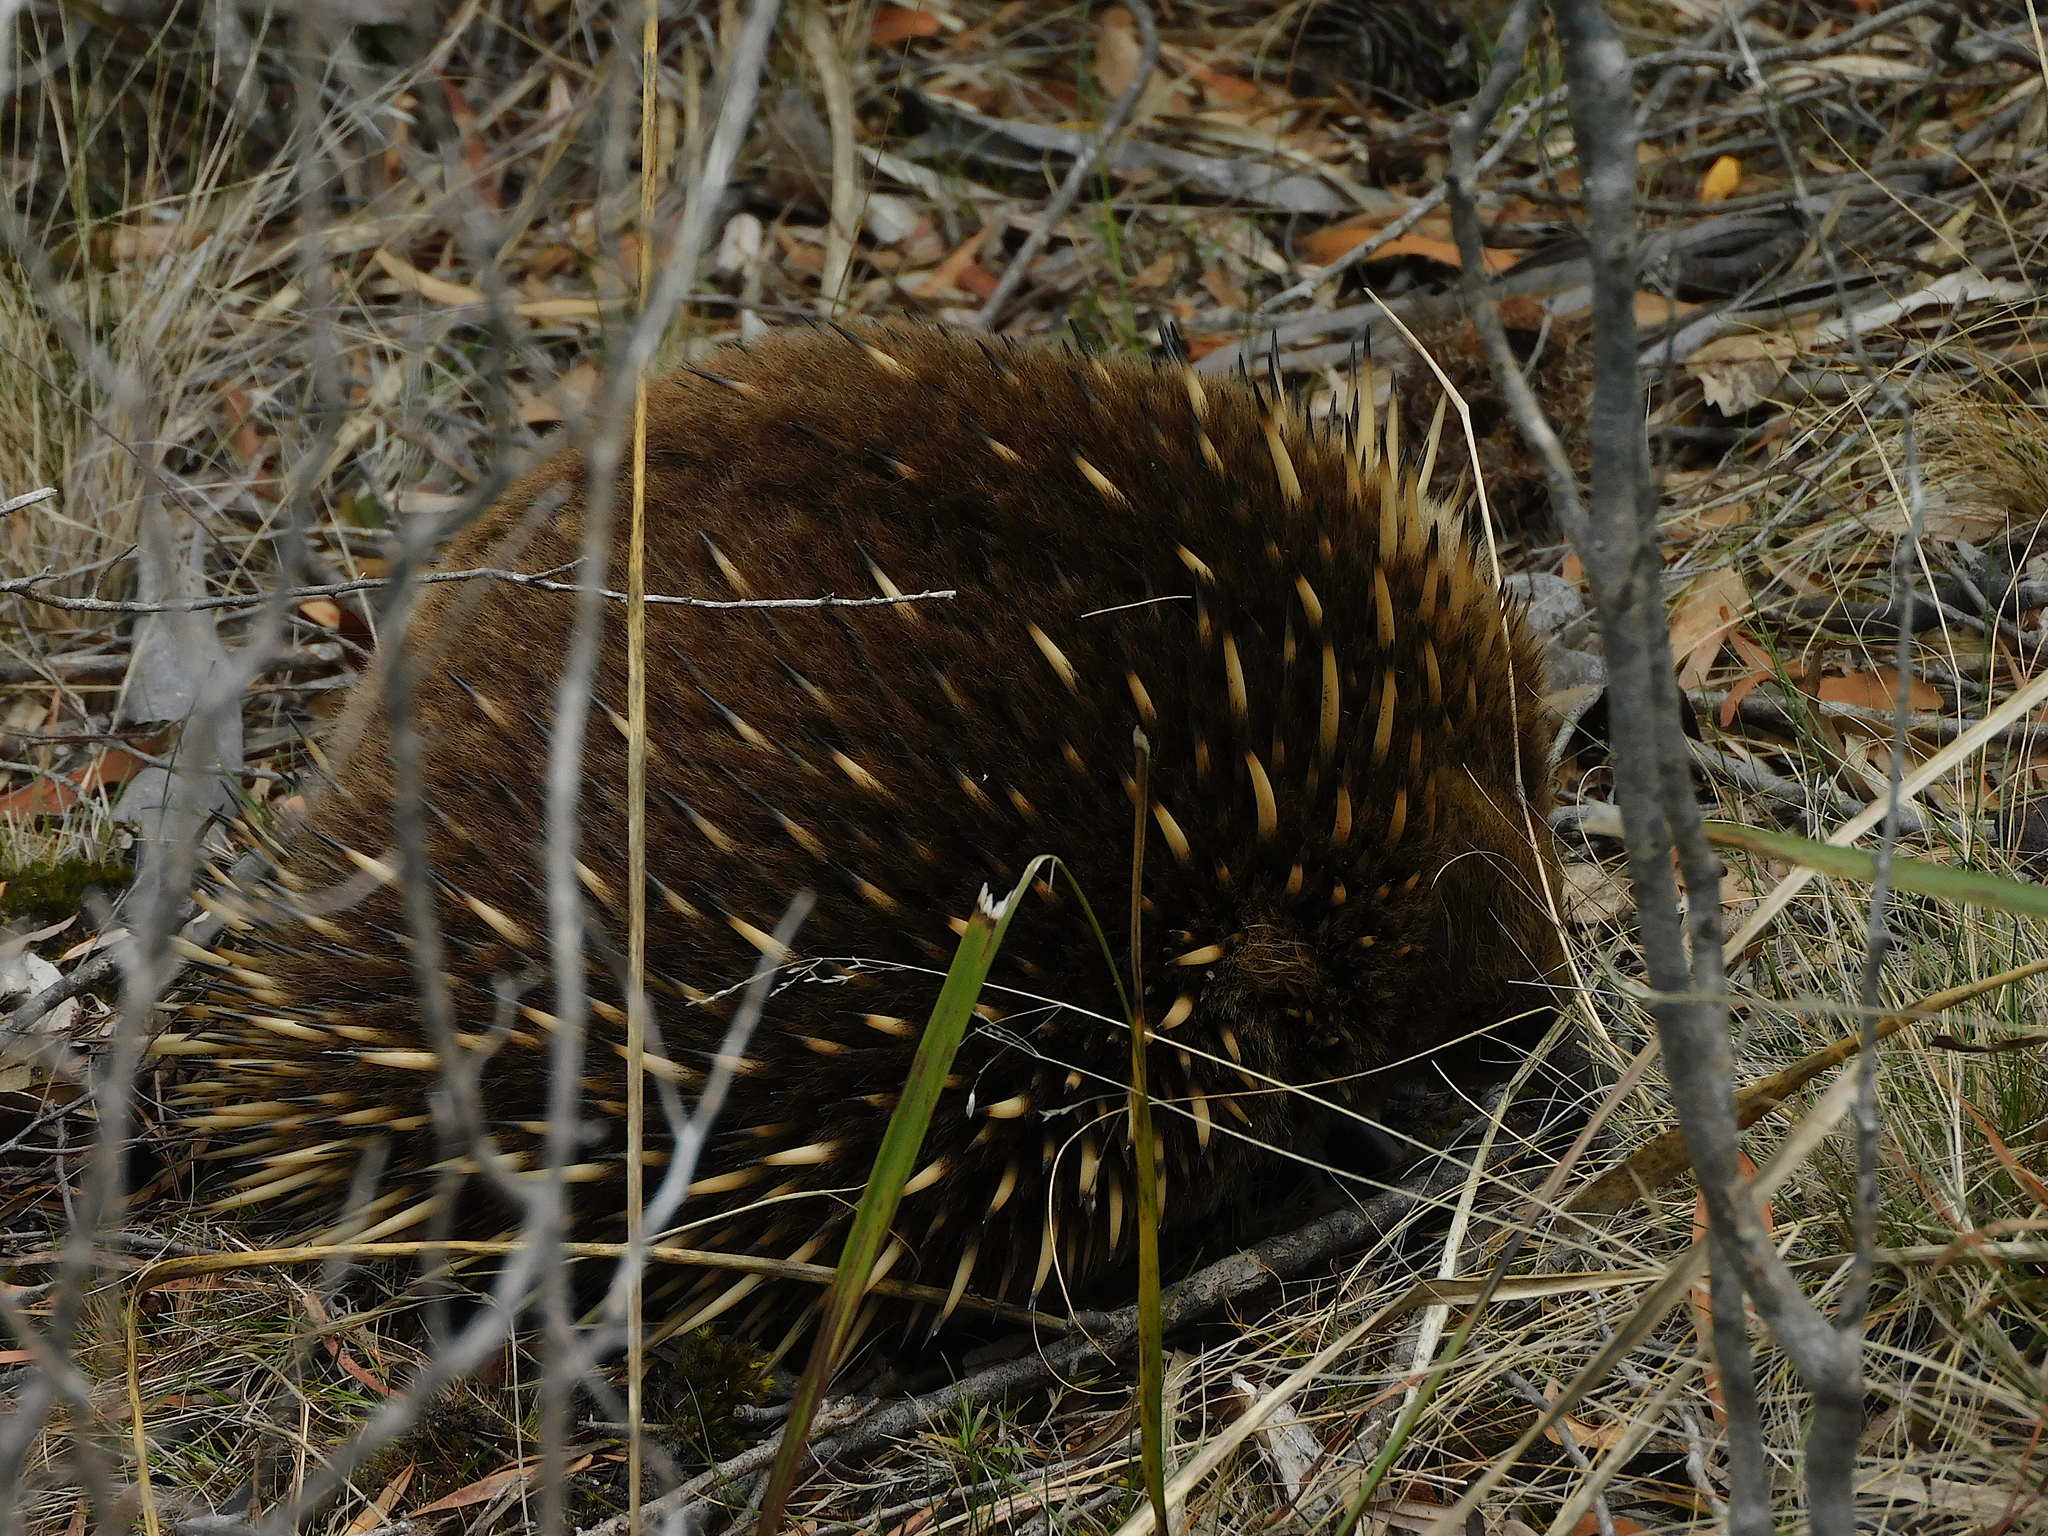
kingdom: Animalia
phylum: Chordata
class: Mammalia
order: Monotremata
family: Tachyglossidae
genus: Tachyglossus
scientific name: Tachyglossus aculeatus
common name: Short-beaked echidna
